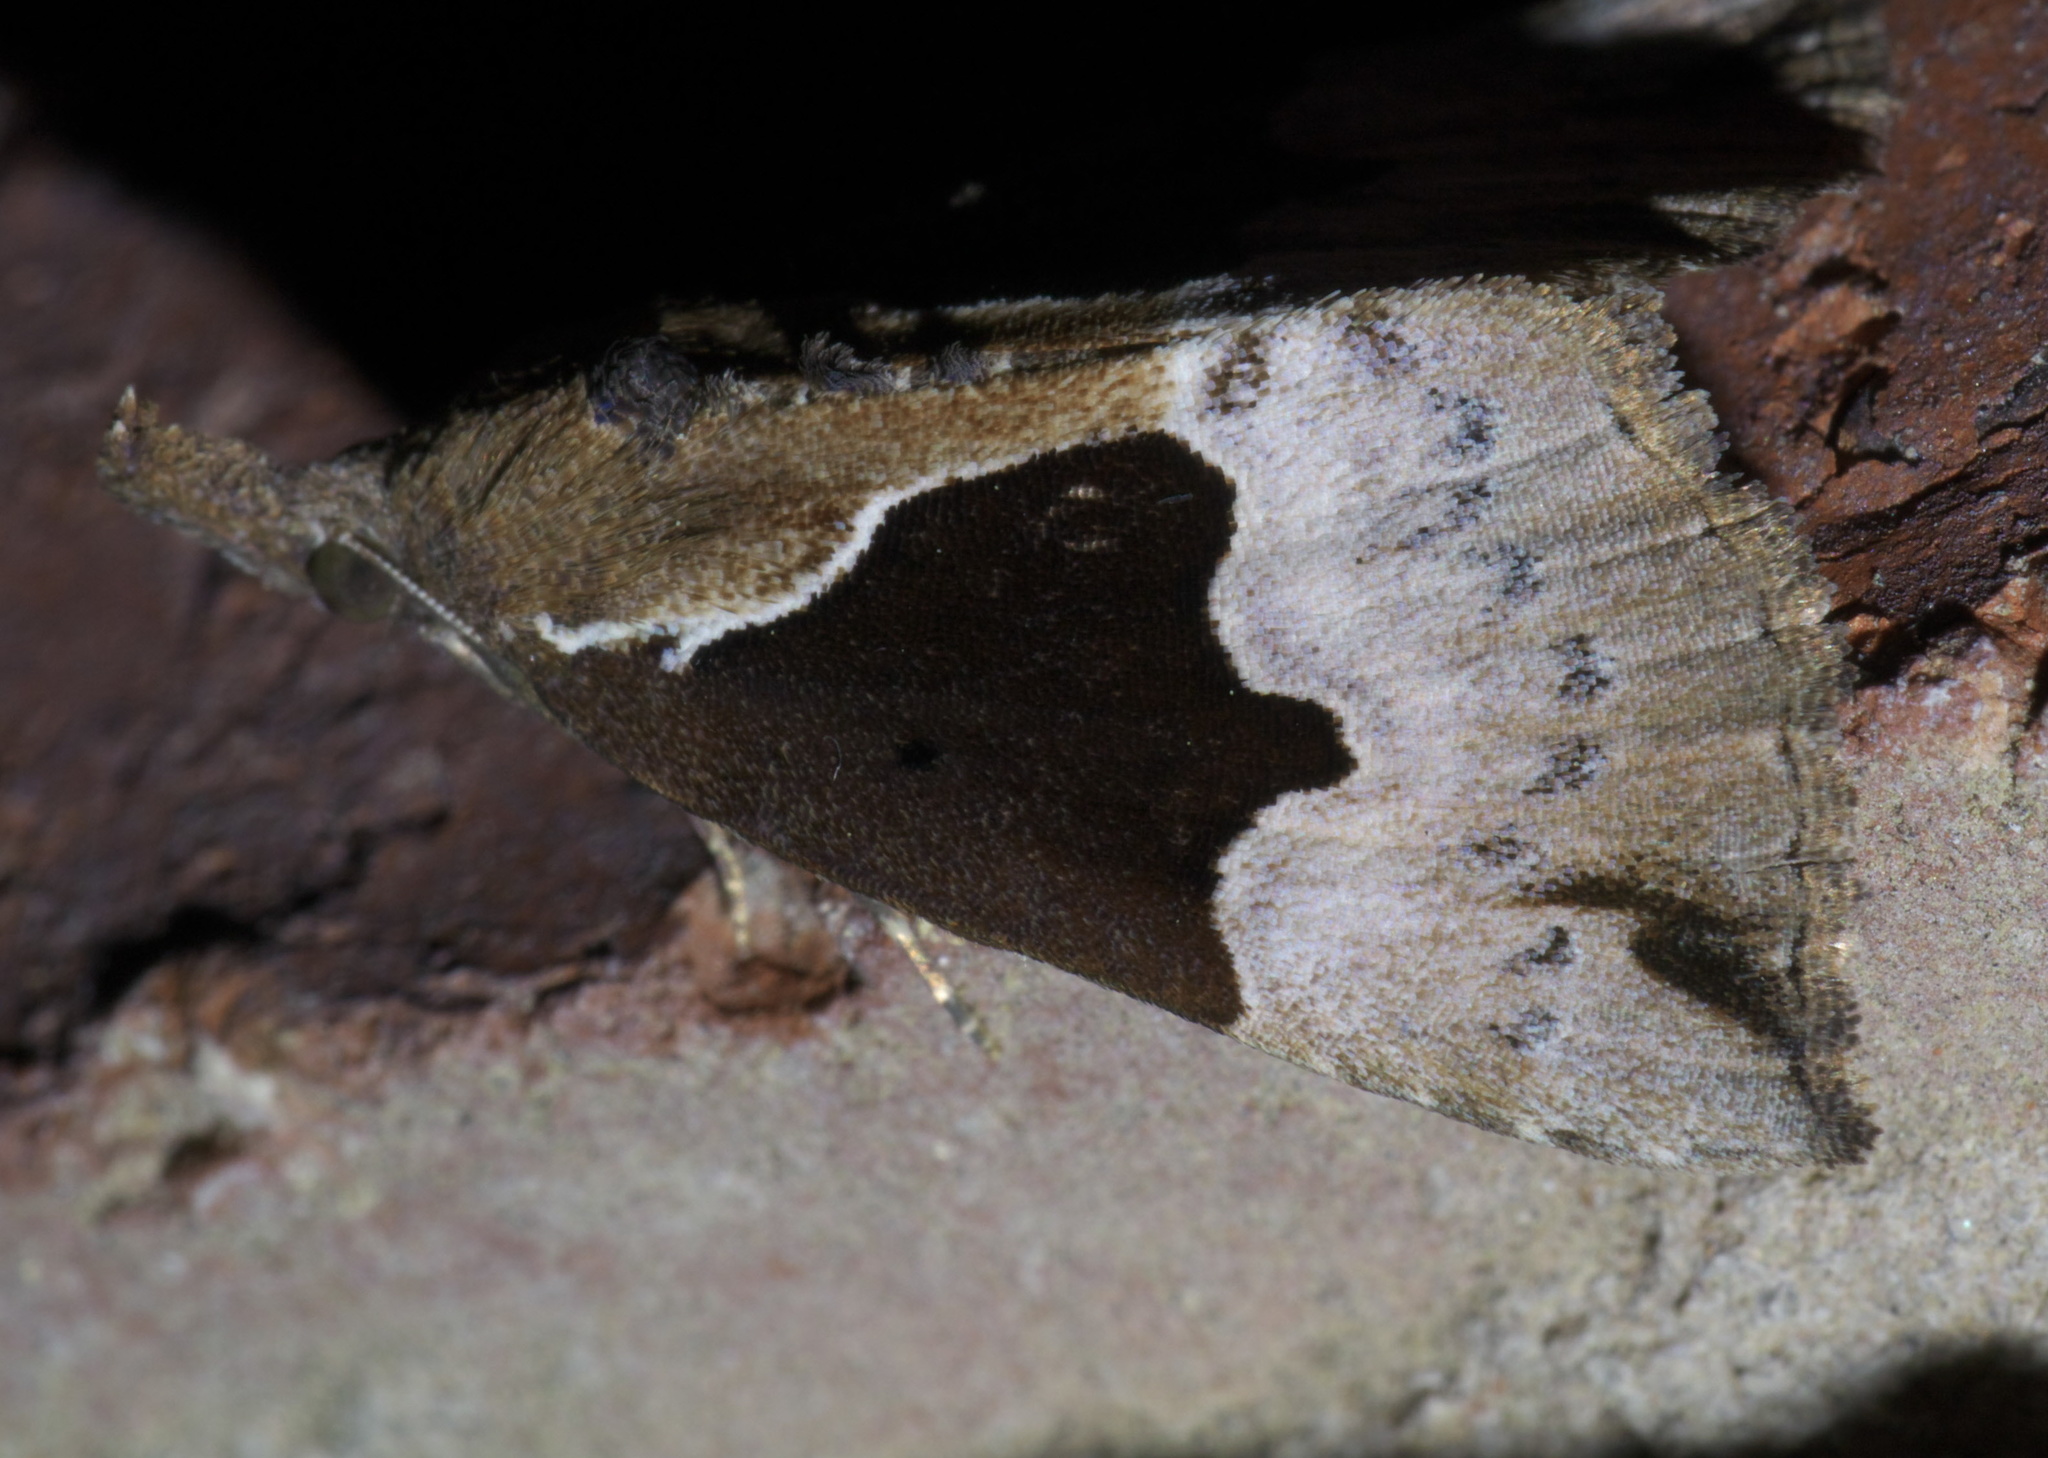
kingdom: Animalia
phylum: Arthropoda
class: Insecta
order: Lepidoptera
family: Erebidae
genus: Hypena
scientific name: Hypena bijugalis
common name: Dimorphic bomolocha moth
